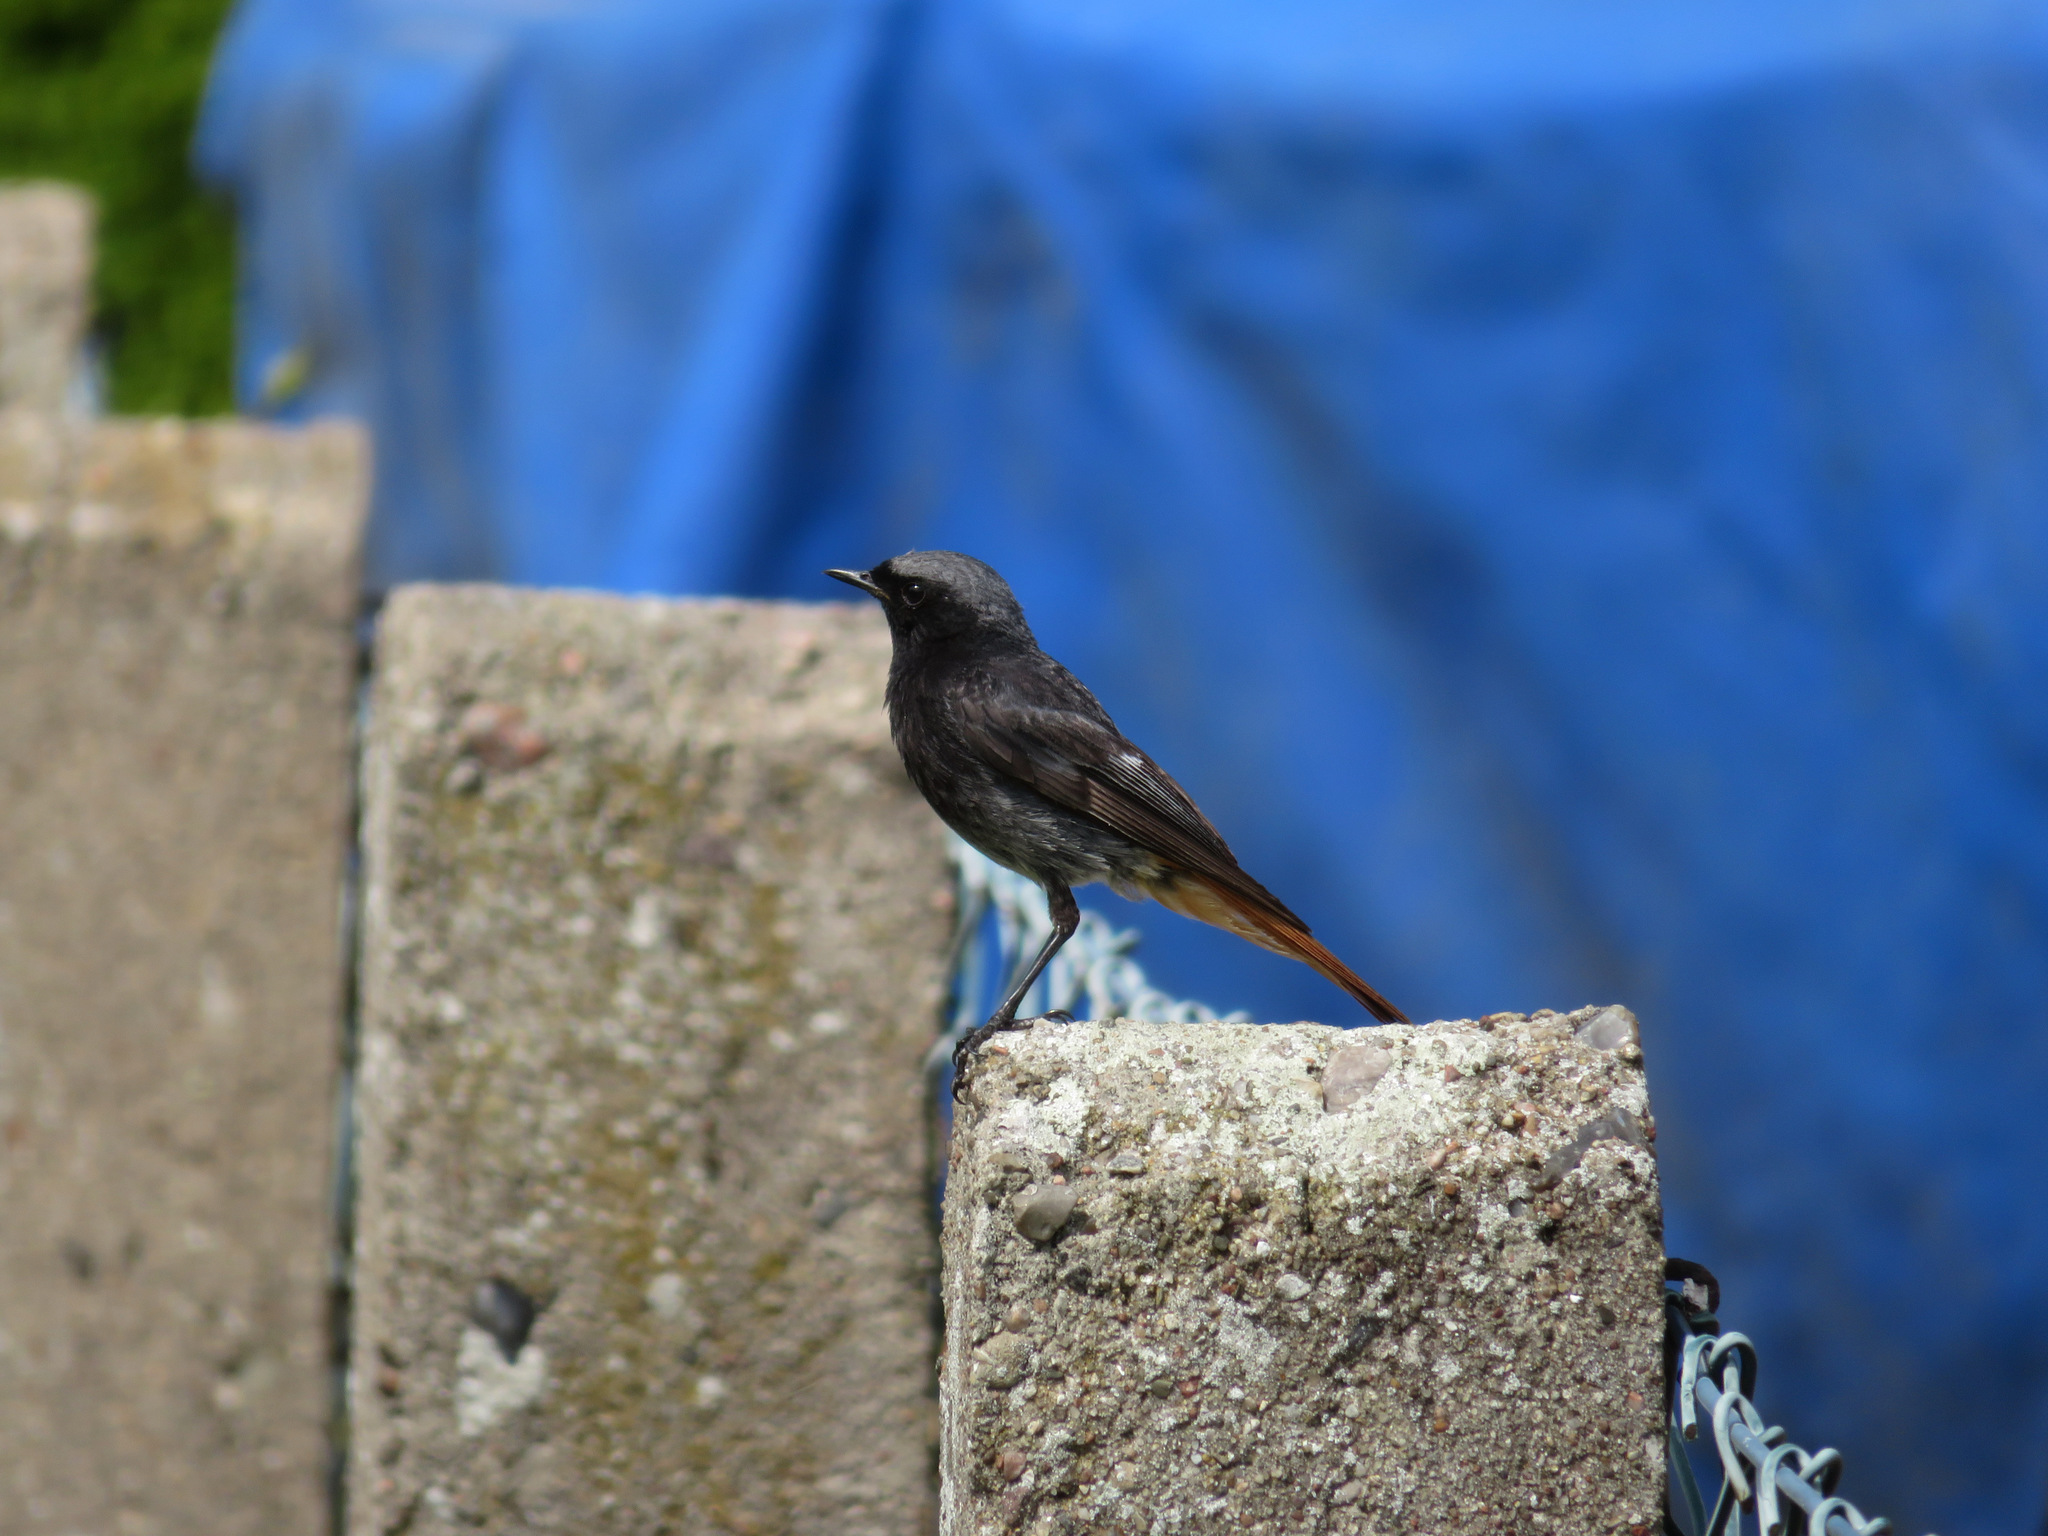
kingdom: Animalia
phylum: Chordata
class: Aves
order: Passeriformes
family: Muscicapidae
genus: Phoenicurus
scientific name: Phoenicurus ochruros
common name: Black redstart
